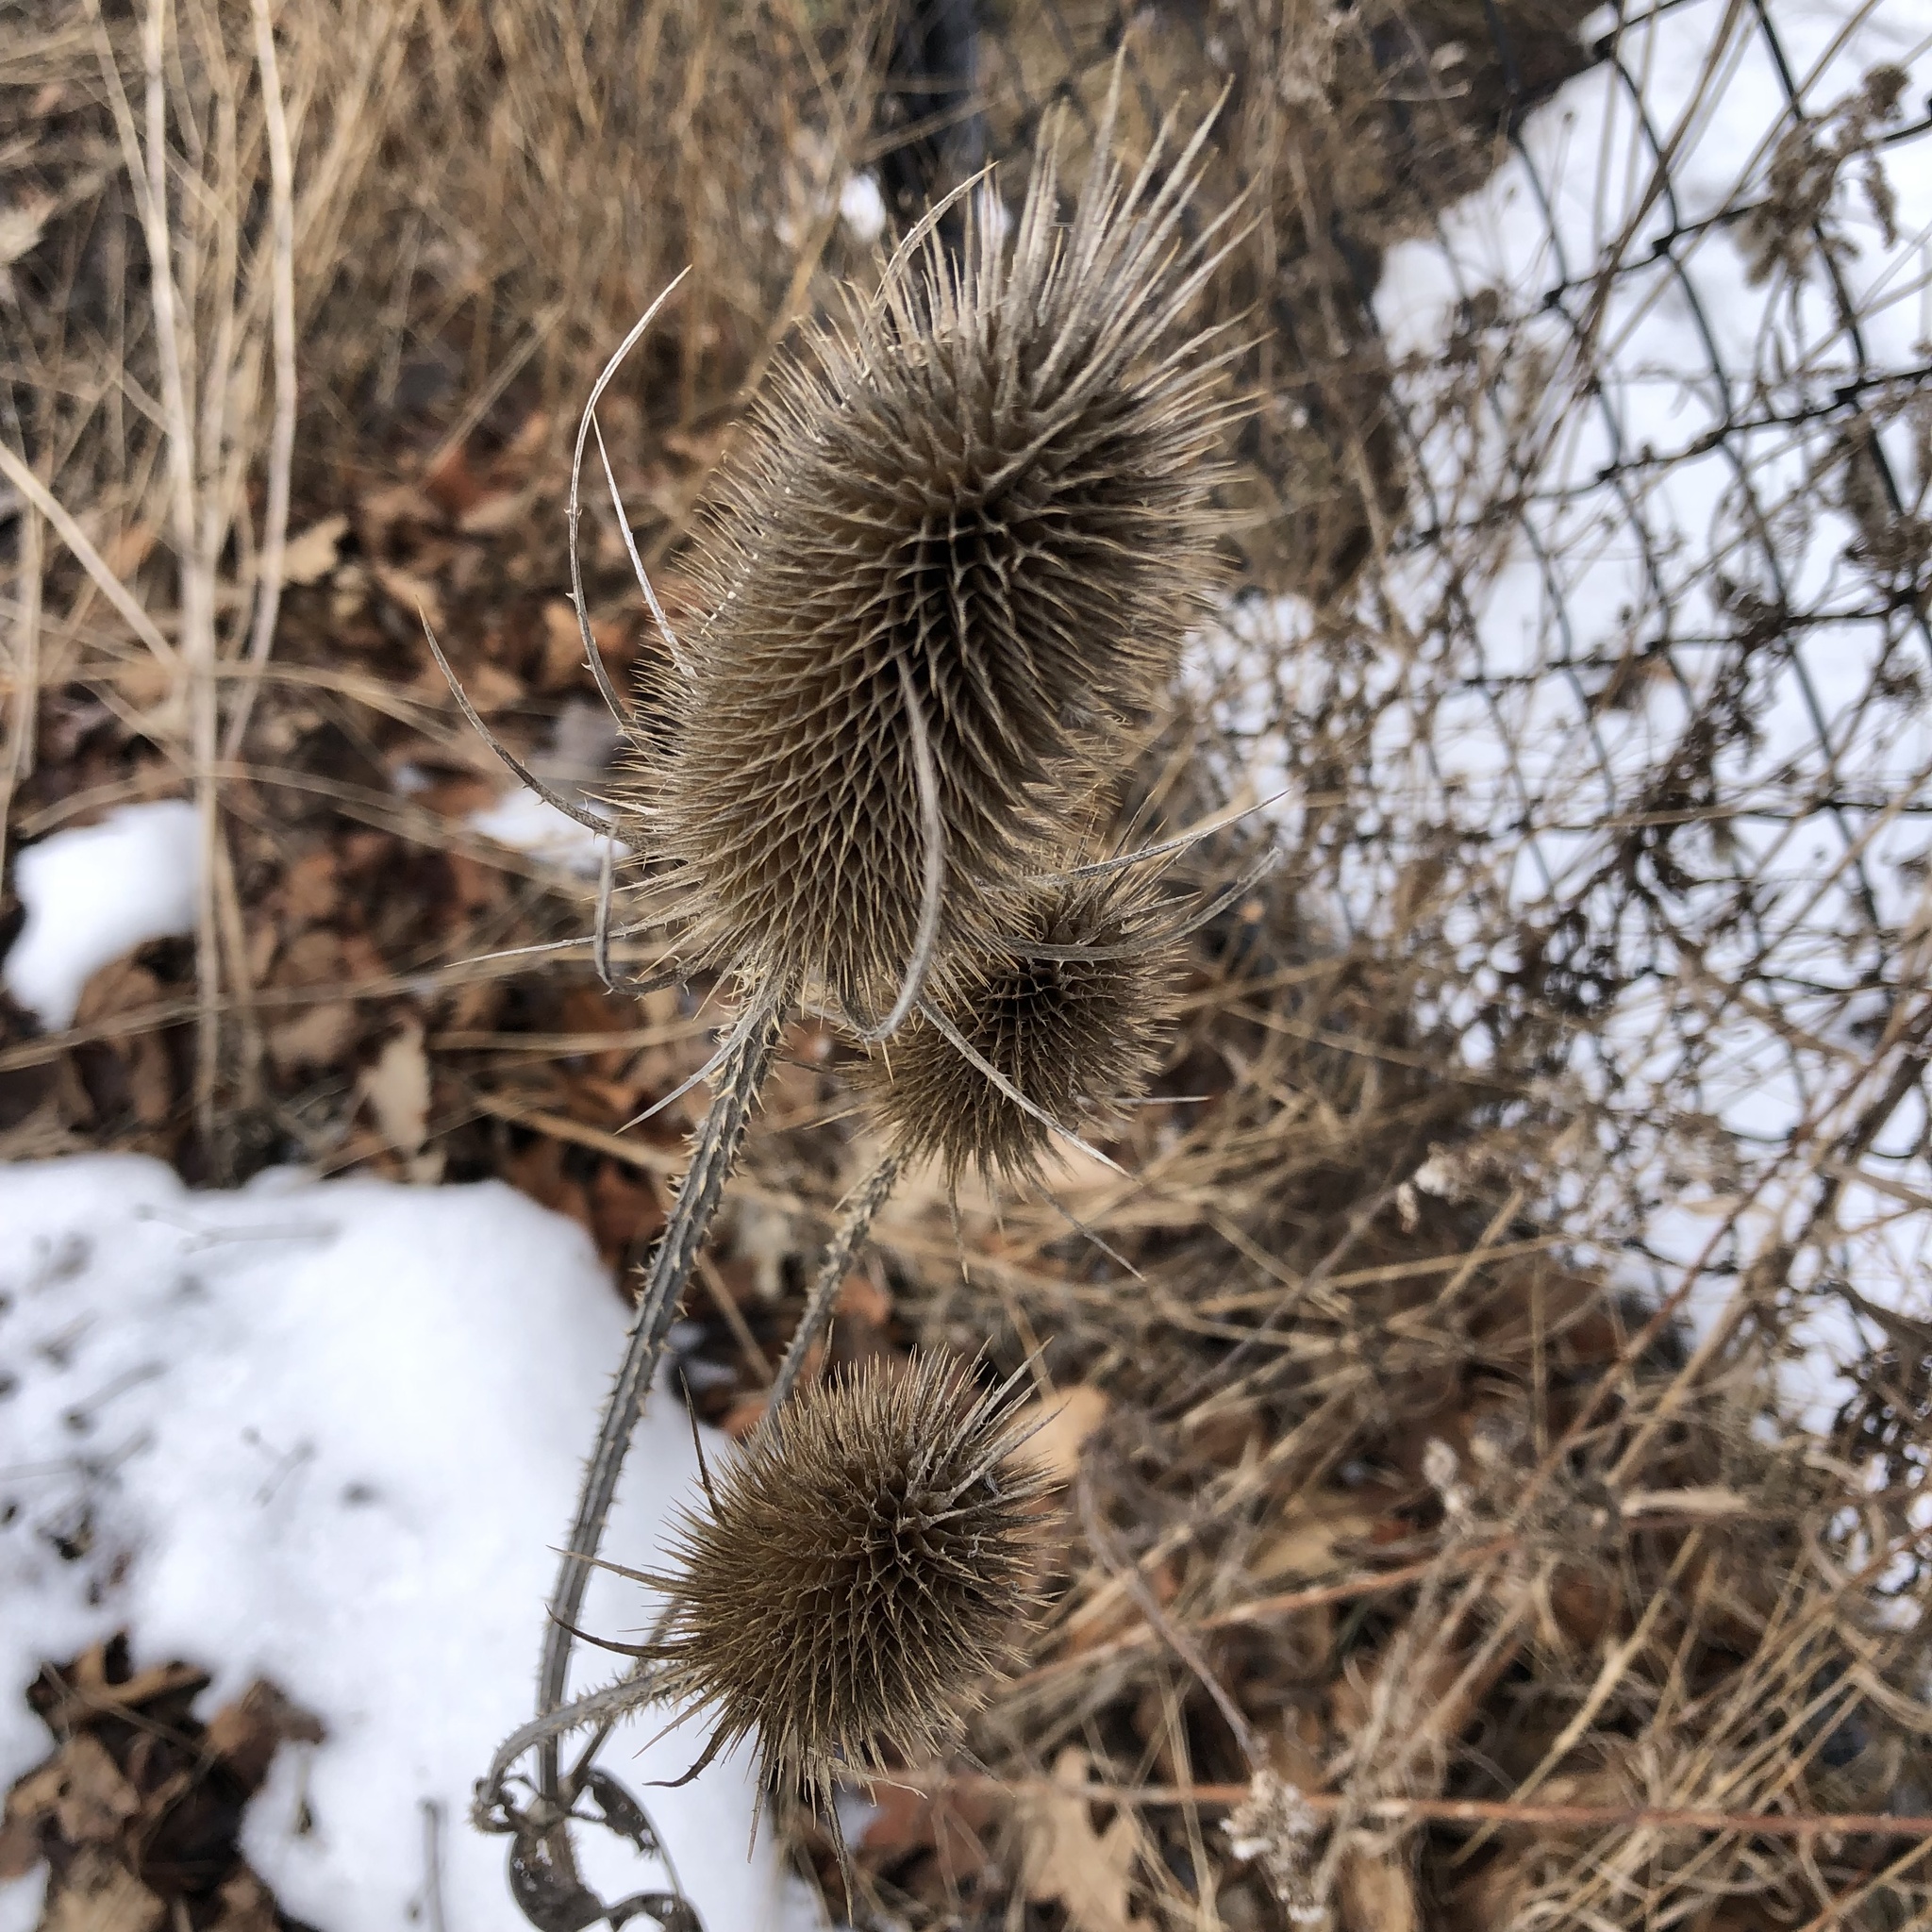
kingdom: Plantae
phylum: Tracheophyta
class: Magnoliopsida
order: Dipsacales
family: Caprifoliaceae
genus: Dipsacus
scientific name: Dipsacus fullonum
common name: Teasel
